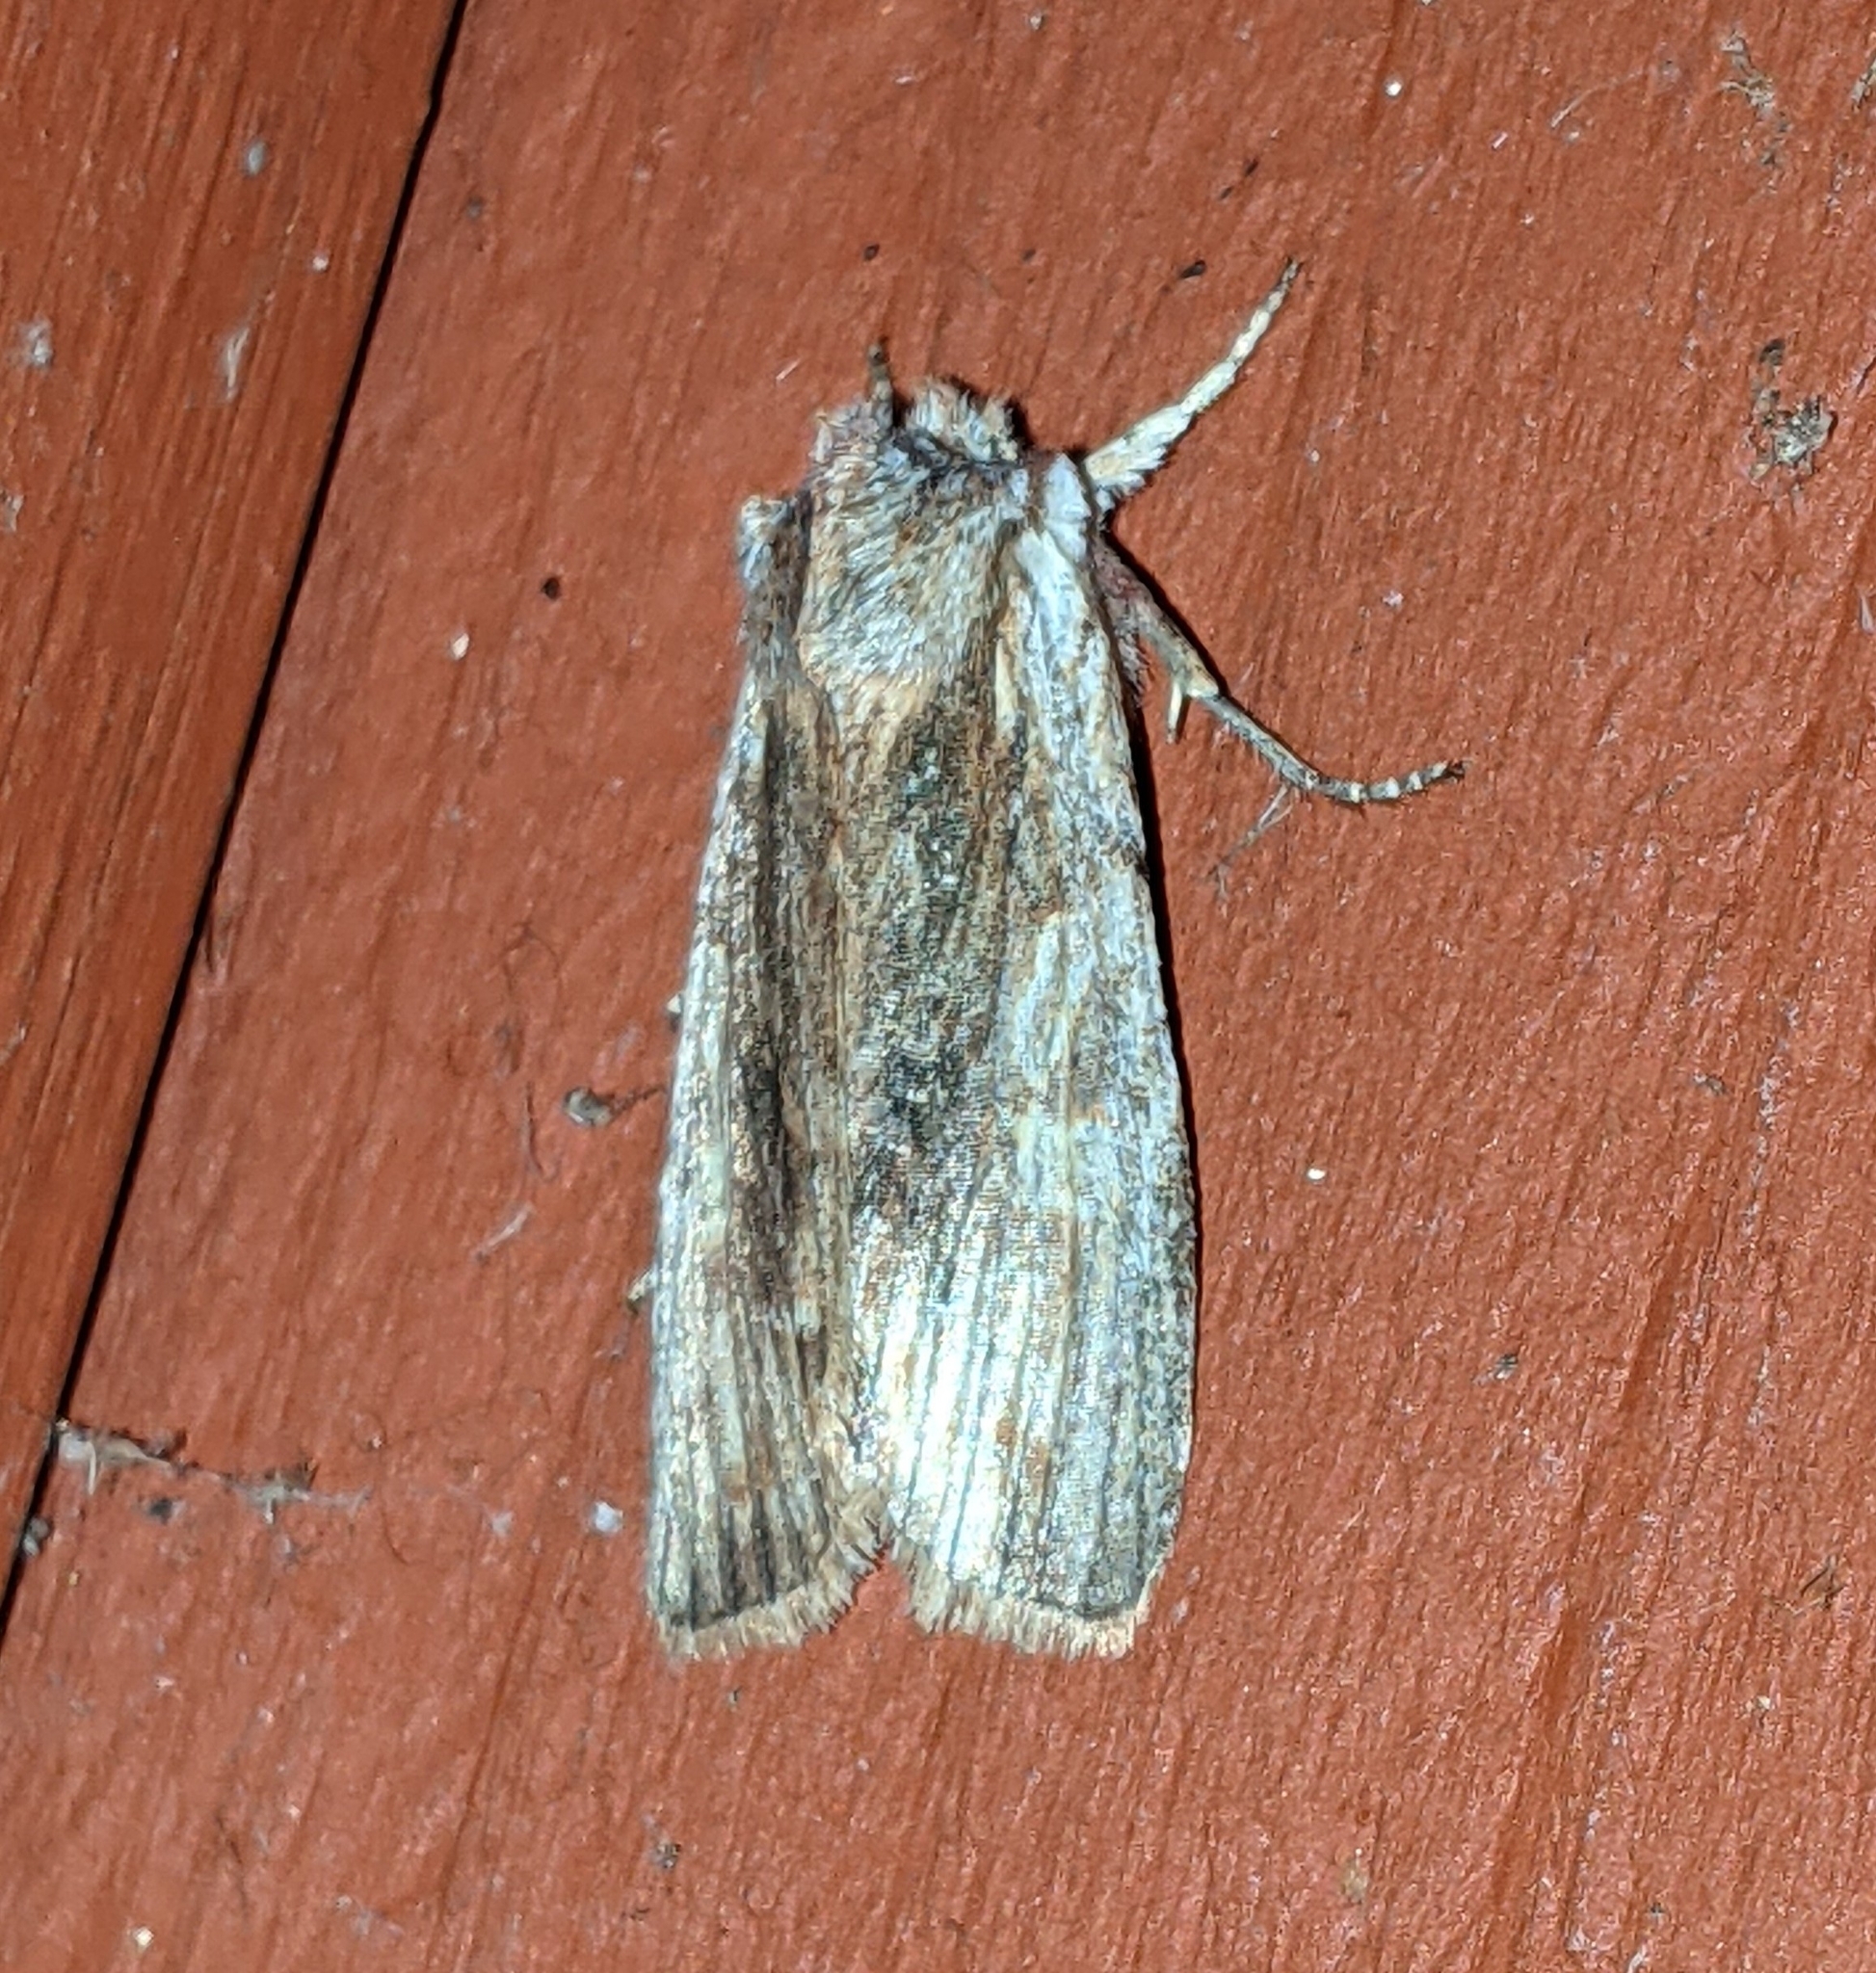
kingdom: Animalia
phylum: Arthropoda
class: Insecta
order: Lepidoptera
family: Noctuidae
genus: Lithophane
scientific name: Lithophane petulca
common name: Wanton pinion
